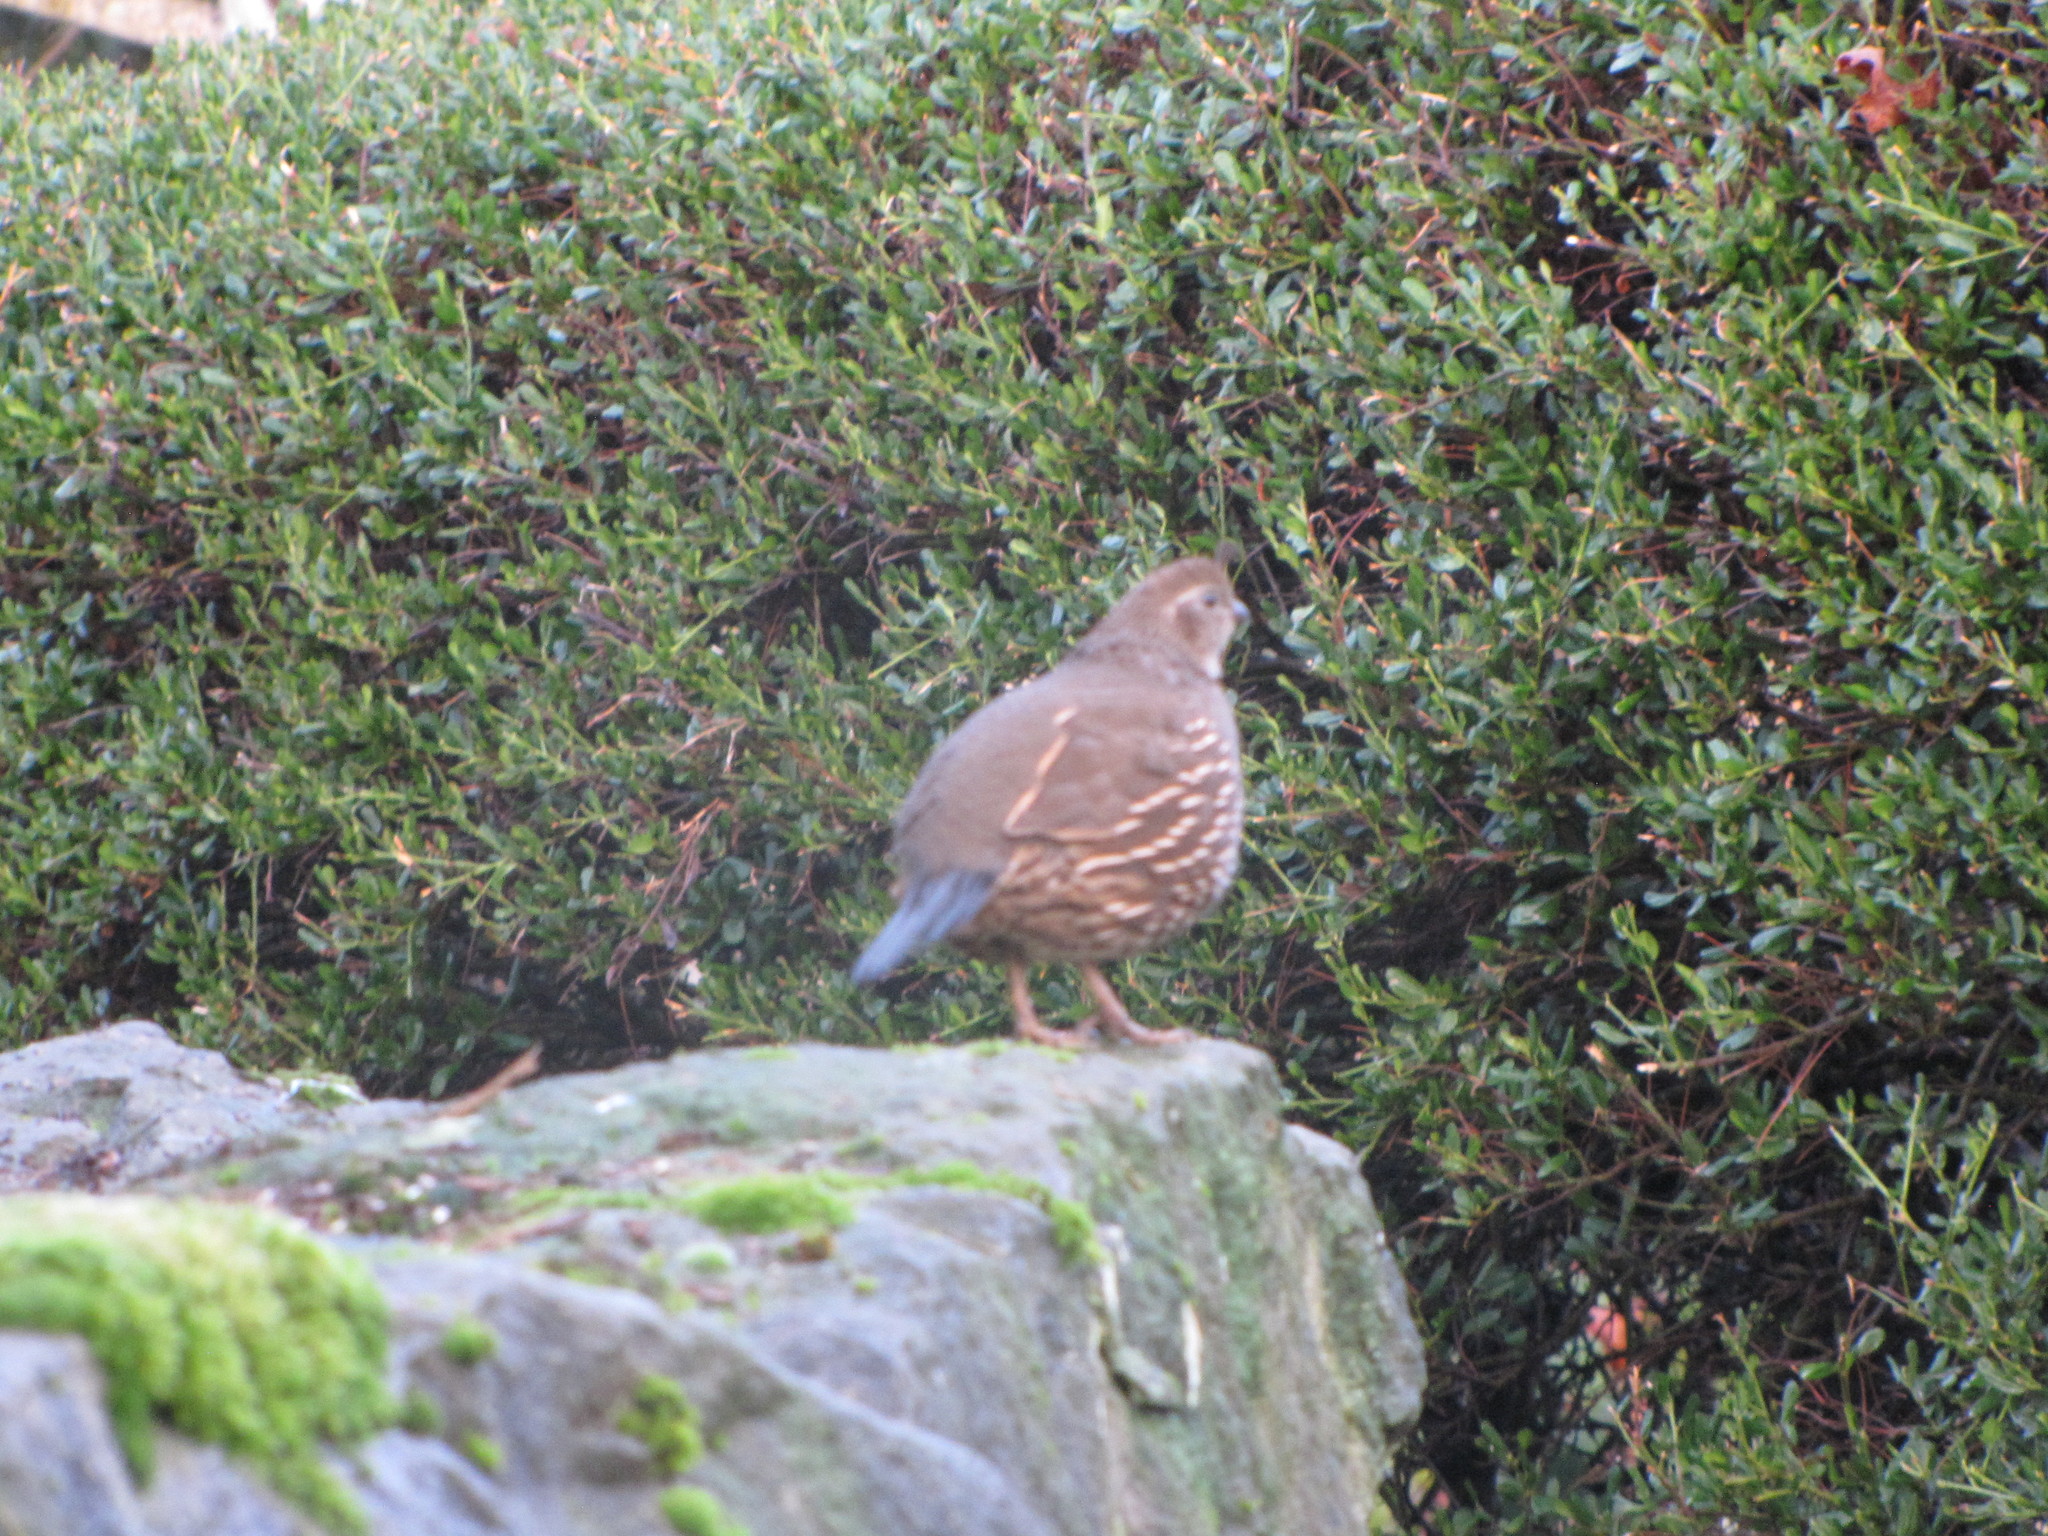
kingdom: Animalia
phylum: Chordata
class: Aves
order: Galliformes
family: Odontophoridae
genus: Callipepla
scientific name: Callipepla californica
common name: California quail
